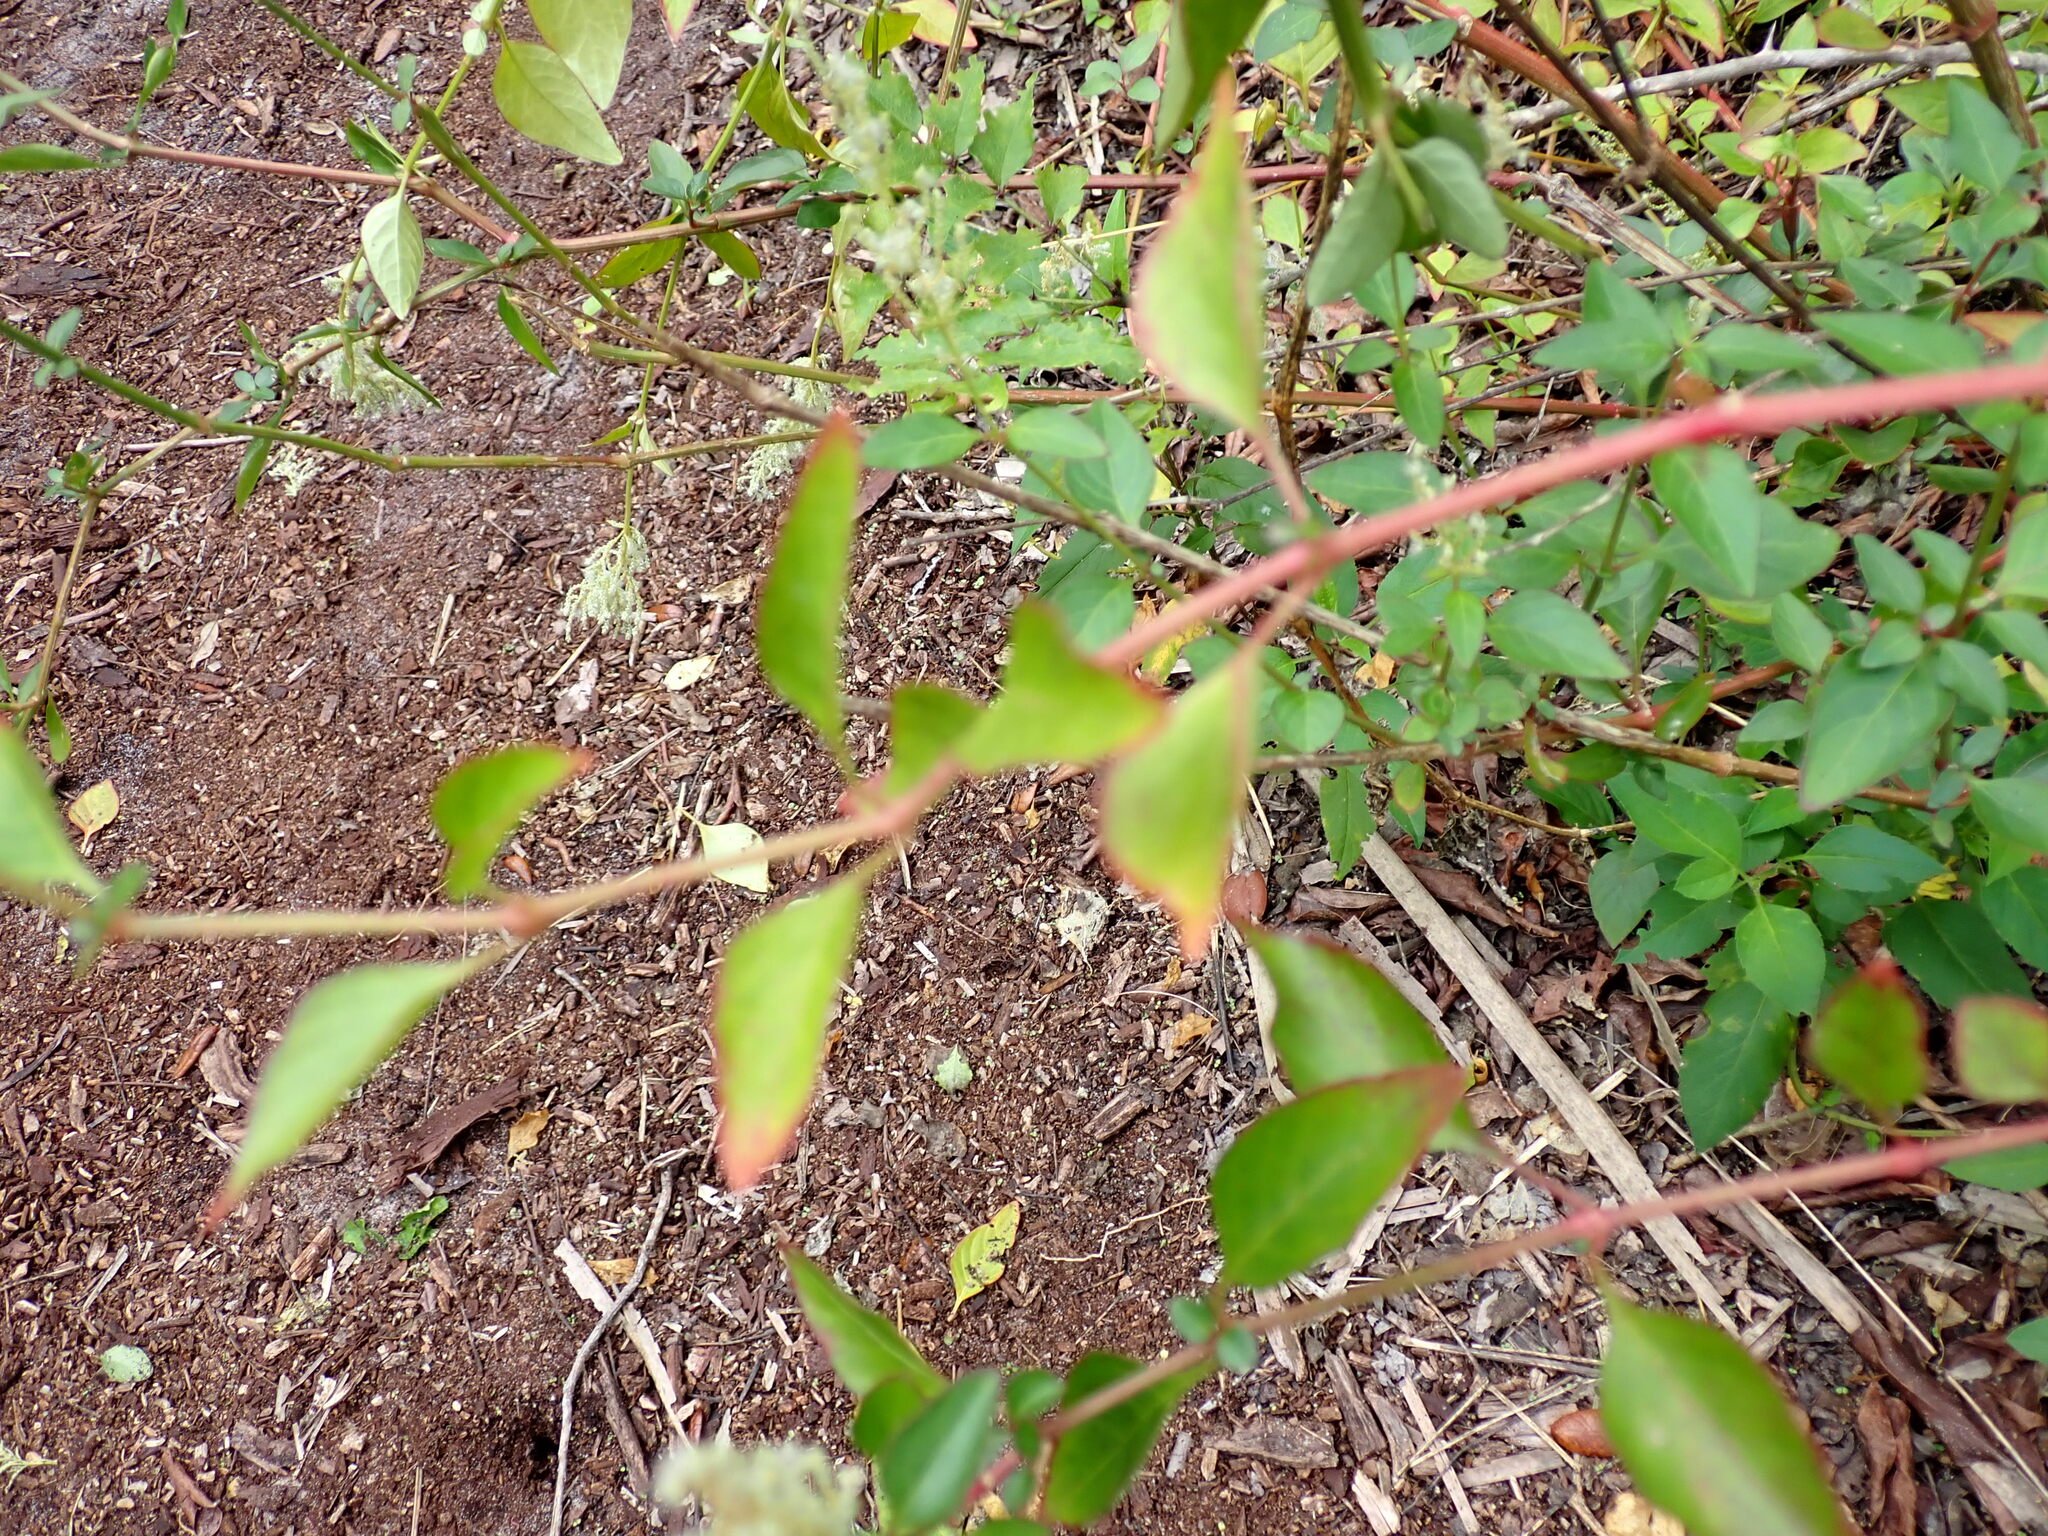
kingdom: Plantae
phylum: Tracheophyta
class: Magnoliopsida
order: Caryophyllales
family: Amaranthaceae
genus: Iresine
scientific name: Iresine diffusa
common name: Juba's-bush
